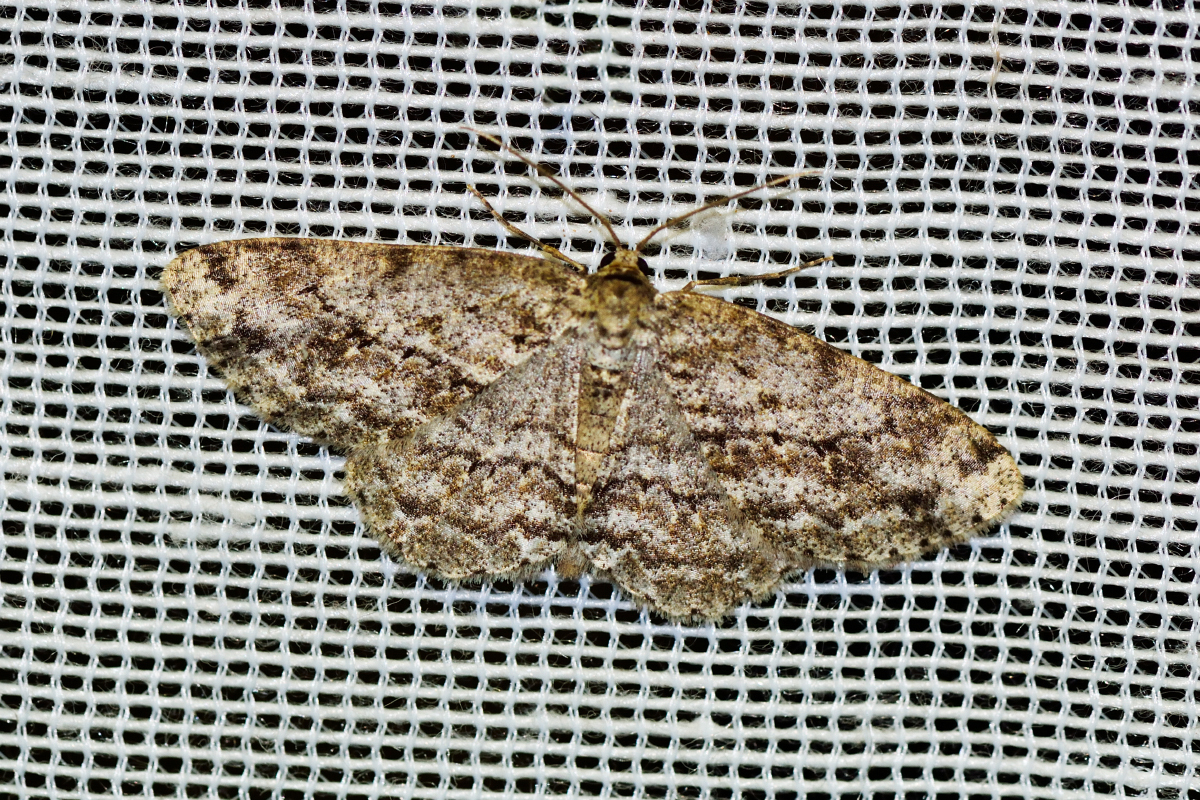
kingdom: Animalia
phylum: Arthropoda
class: Insecta
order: Lepidoptera
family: Geometridae
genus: Ectropis
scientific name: Ectropis crepuscularia
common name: Engrailed
